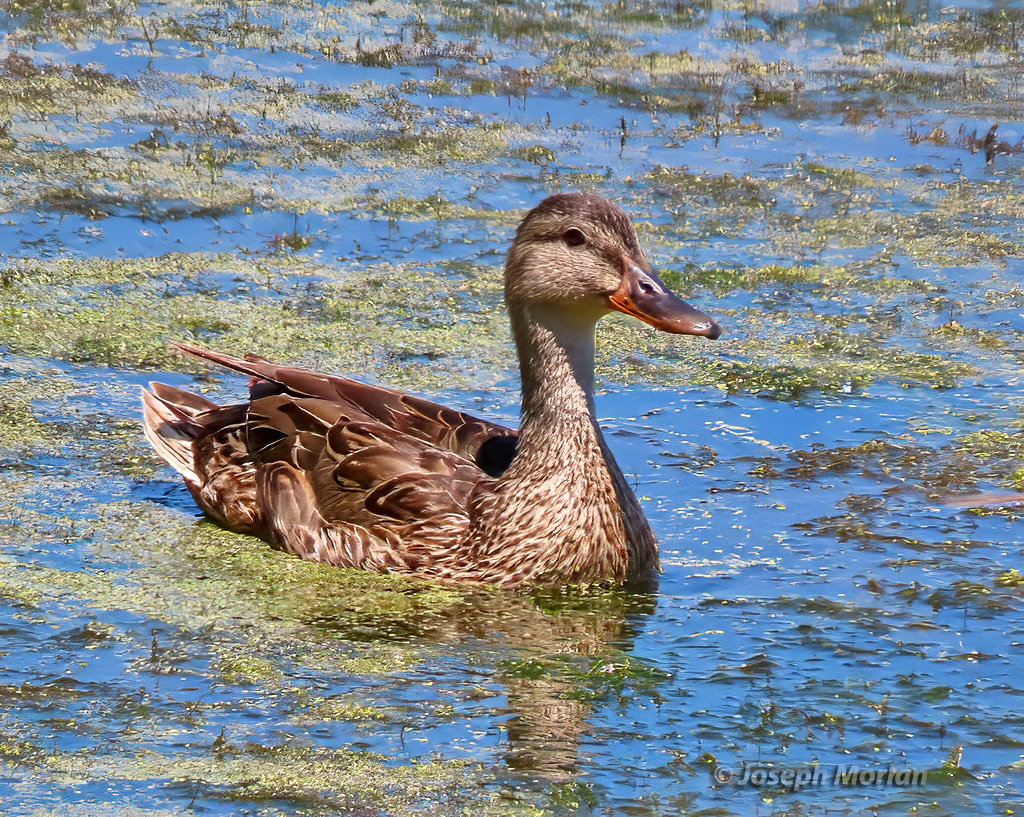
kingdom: Animalia
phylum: Chordata
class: Aves
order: Anseriformes
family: Anatidae
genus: Anas
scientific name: Anas platyrhynchos
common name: Mallard
